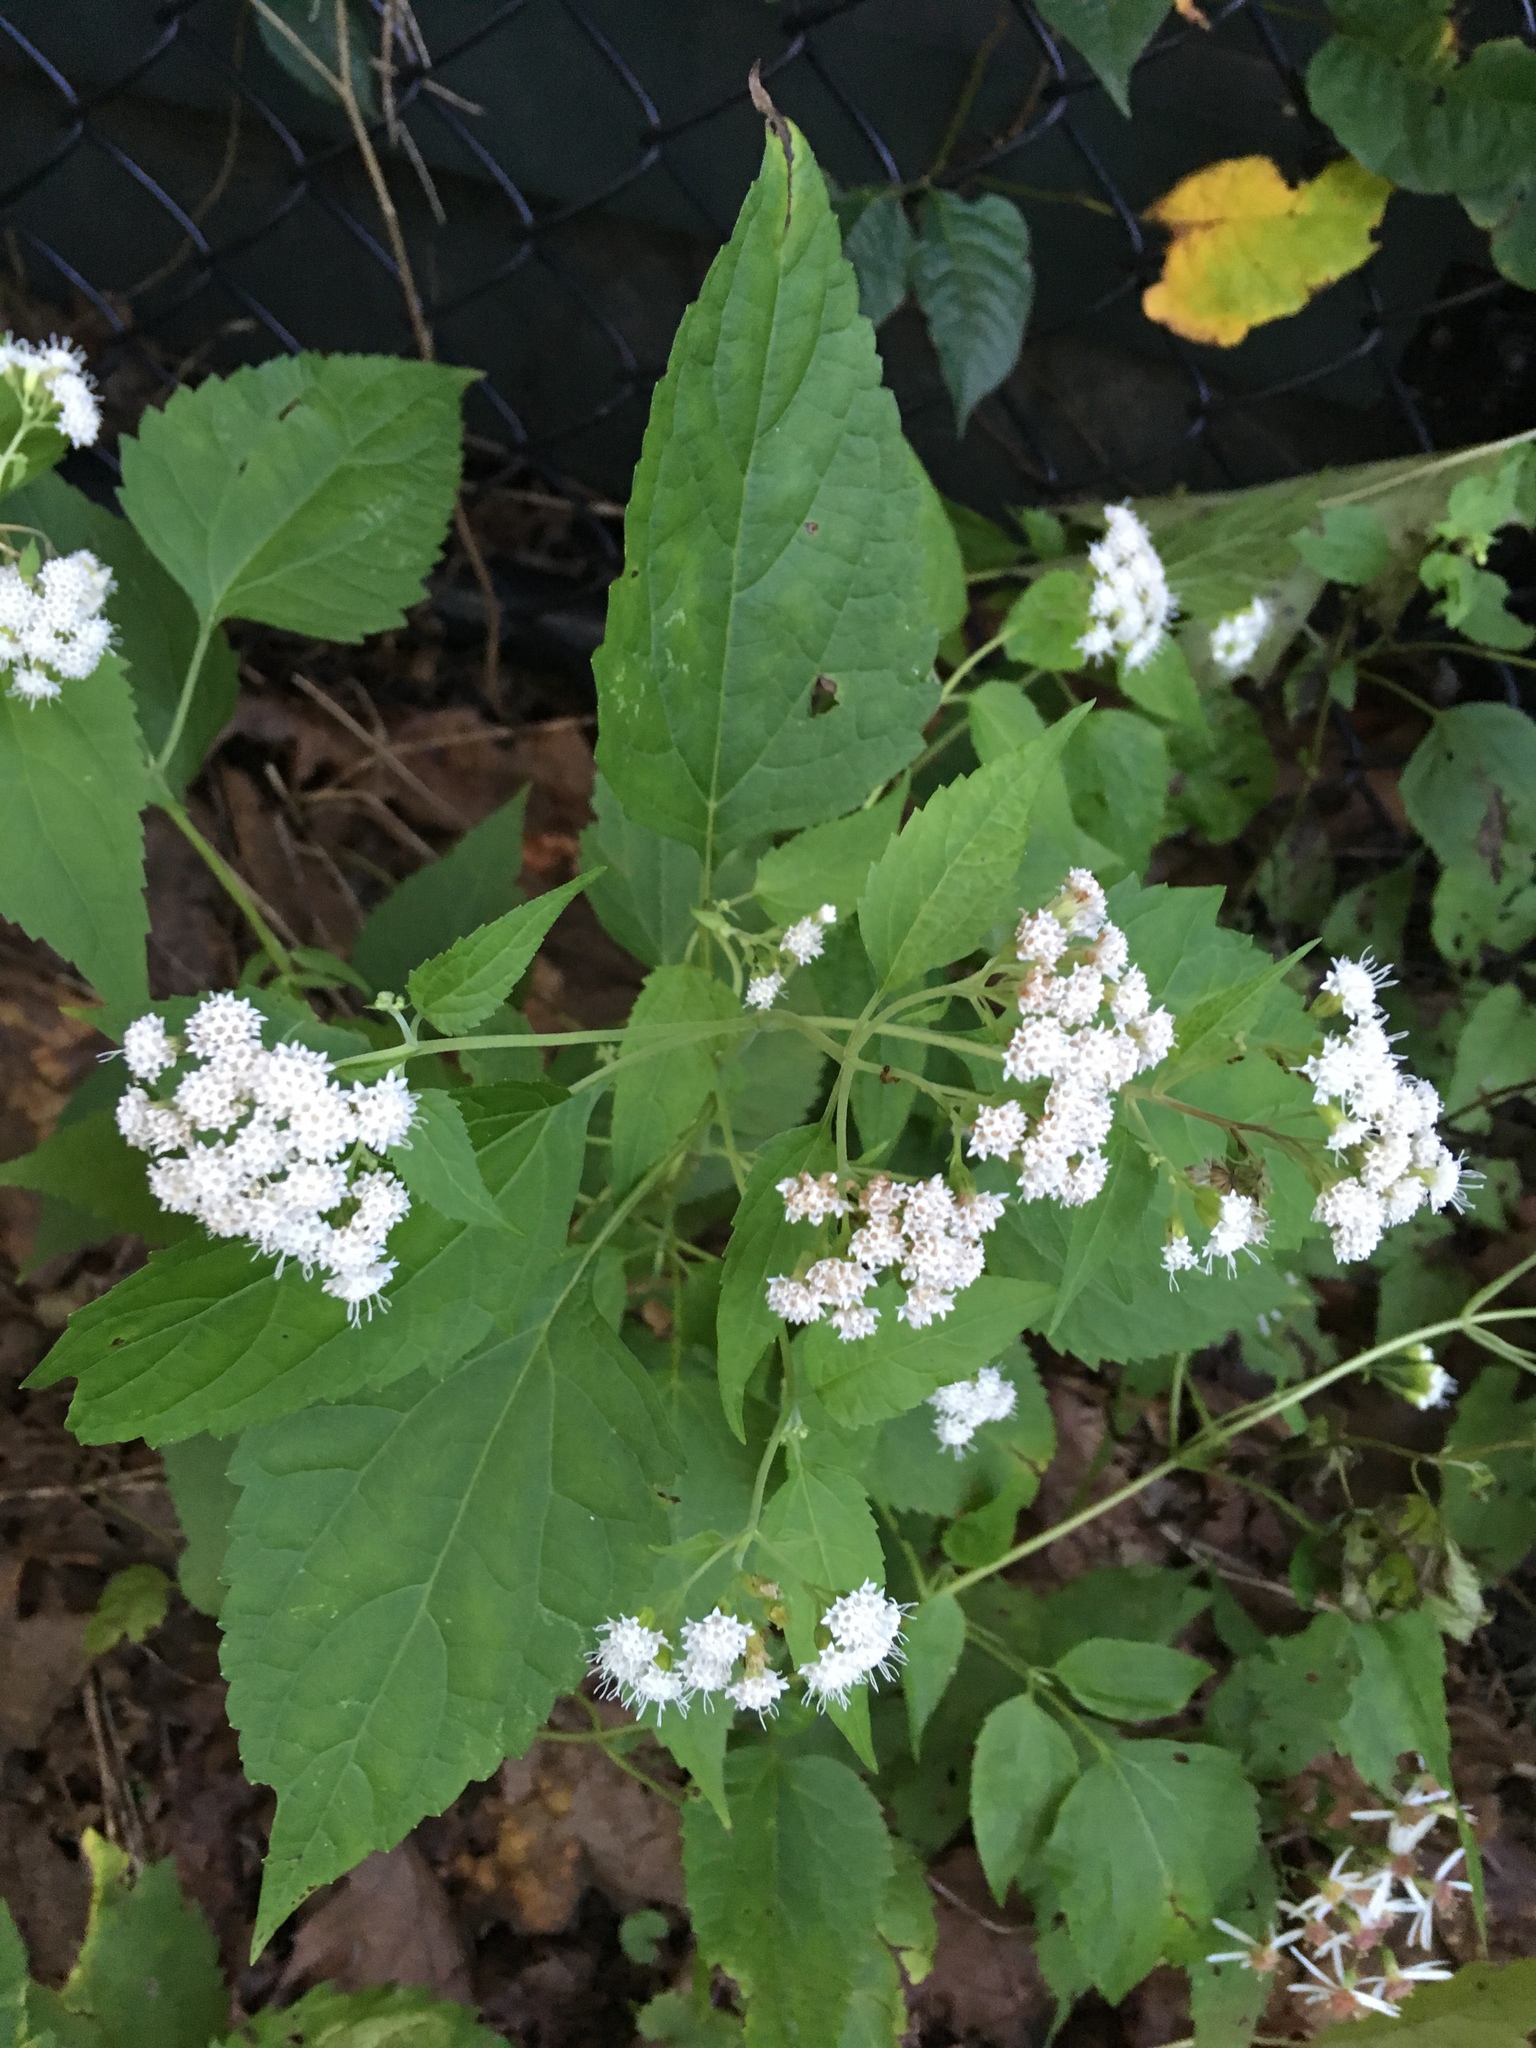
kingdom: Plantae
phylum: Tracheophyta
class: Magnoliopsida
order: Asterales
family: Asteraceae
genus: Ageratina
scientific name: Ageratina altissima
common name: White snakeroot
